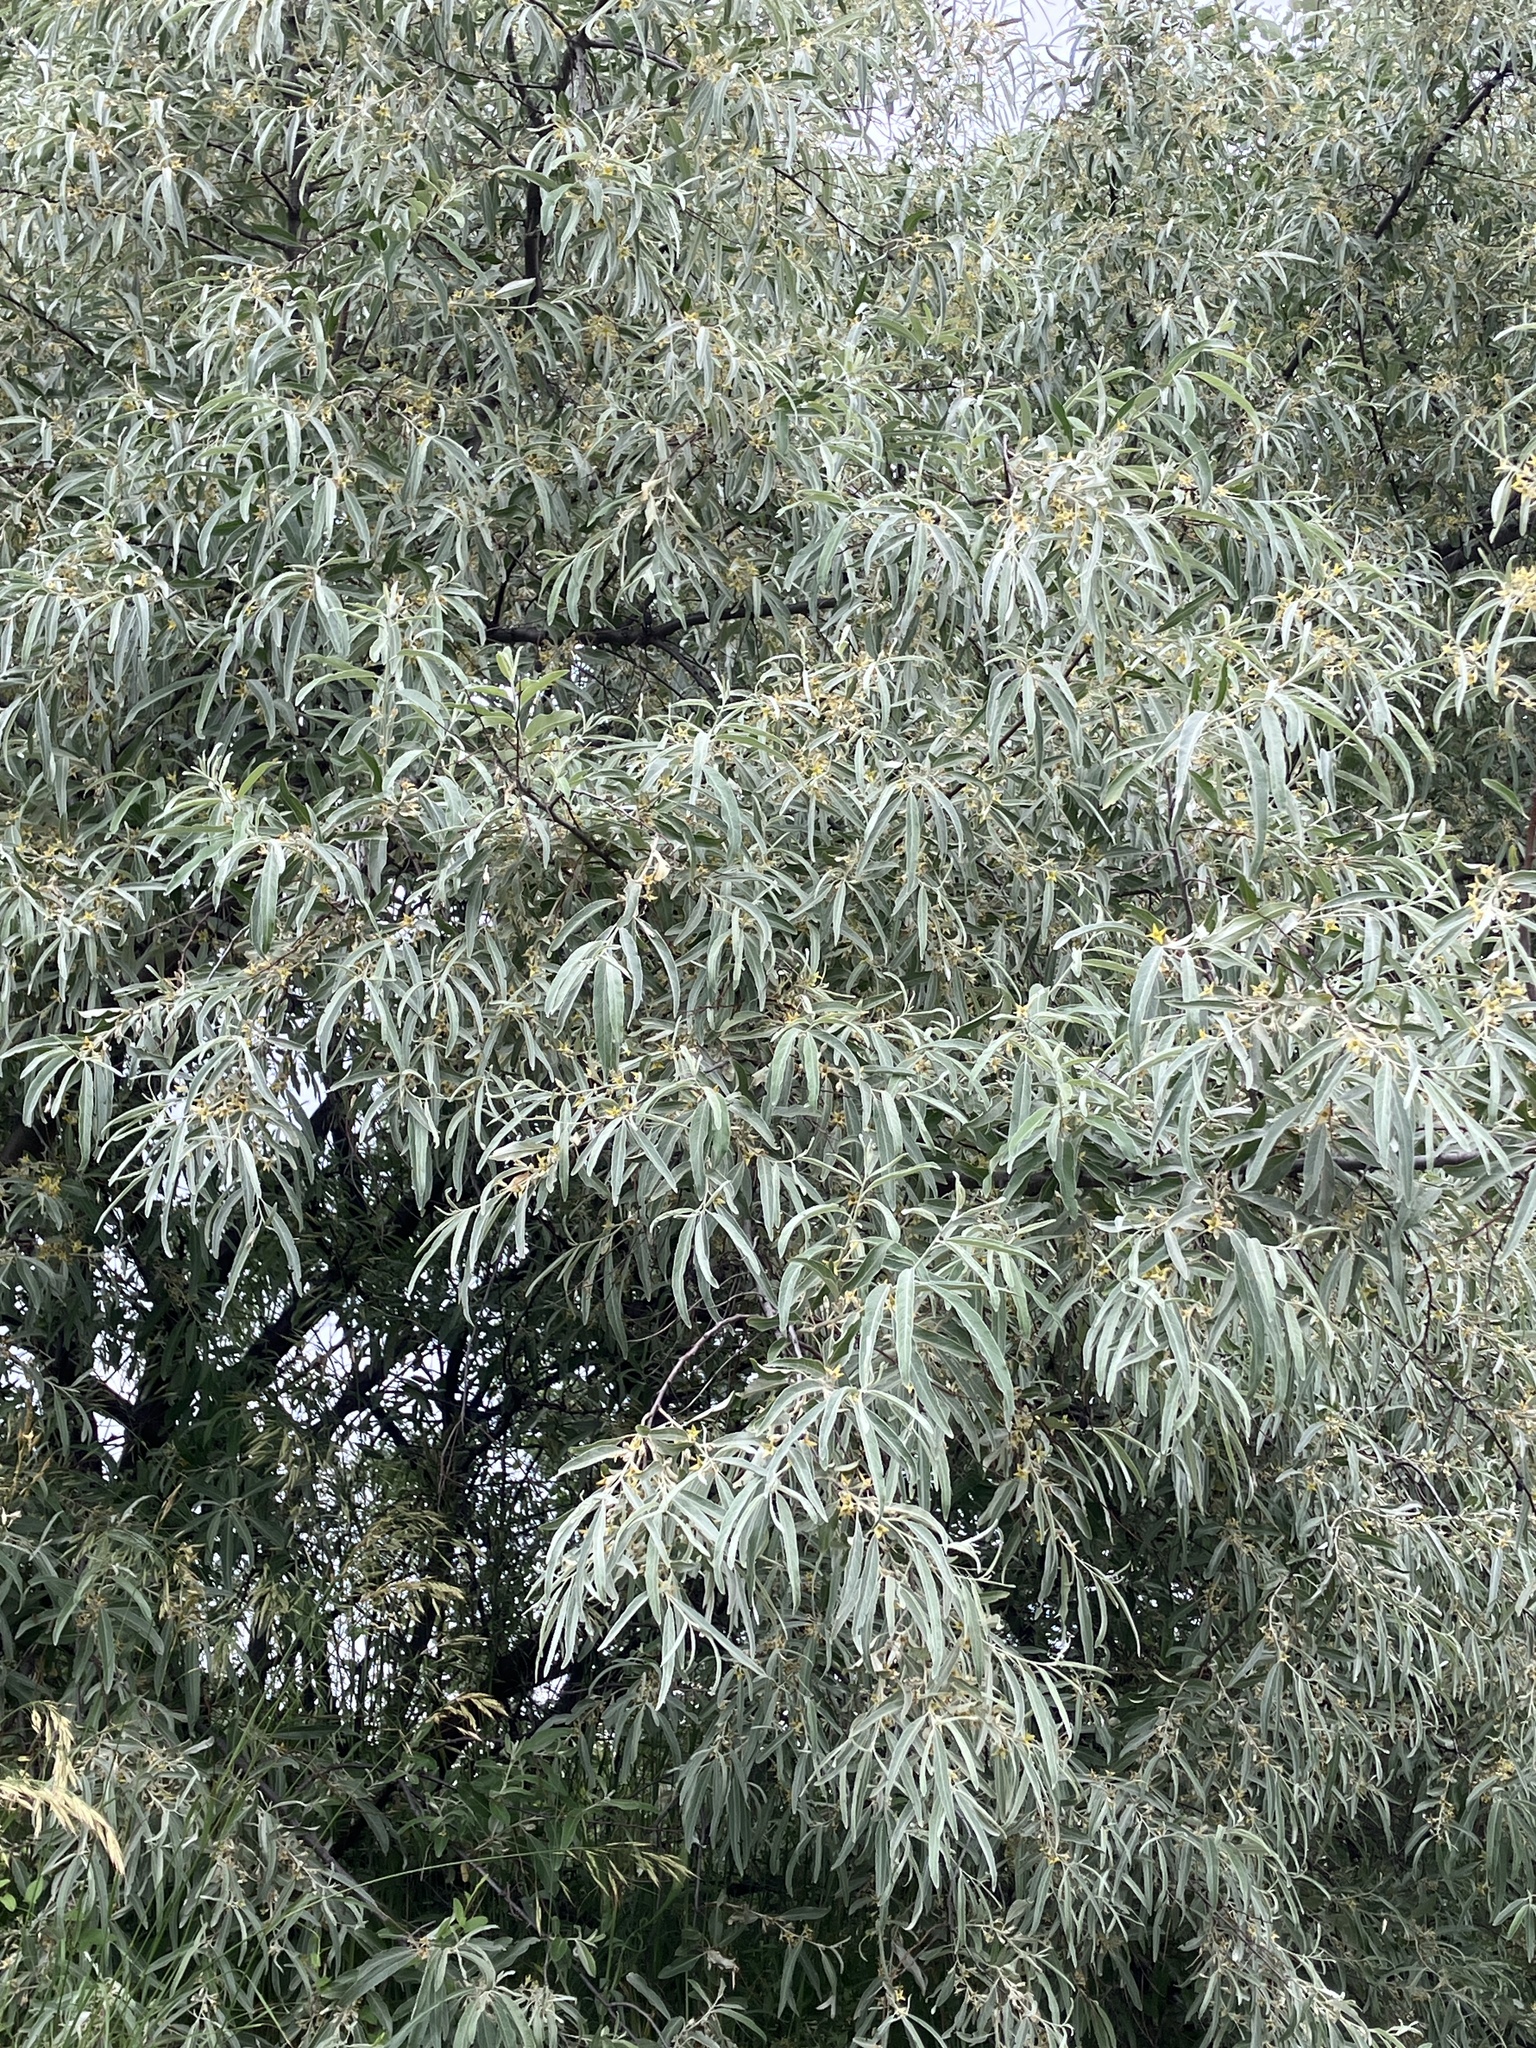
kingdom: Plantae
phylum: Tracheophyta
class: Magnoliopsida
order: Rosales
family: Elaeagnaceae
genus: Elaeagnus
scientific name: Elaeagnus angustifolia
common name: Russian olive
